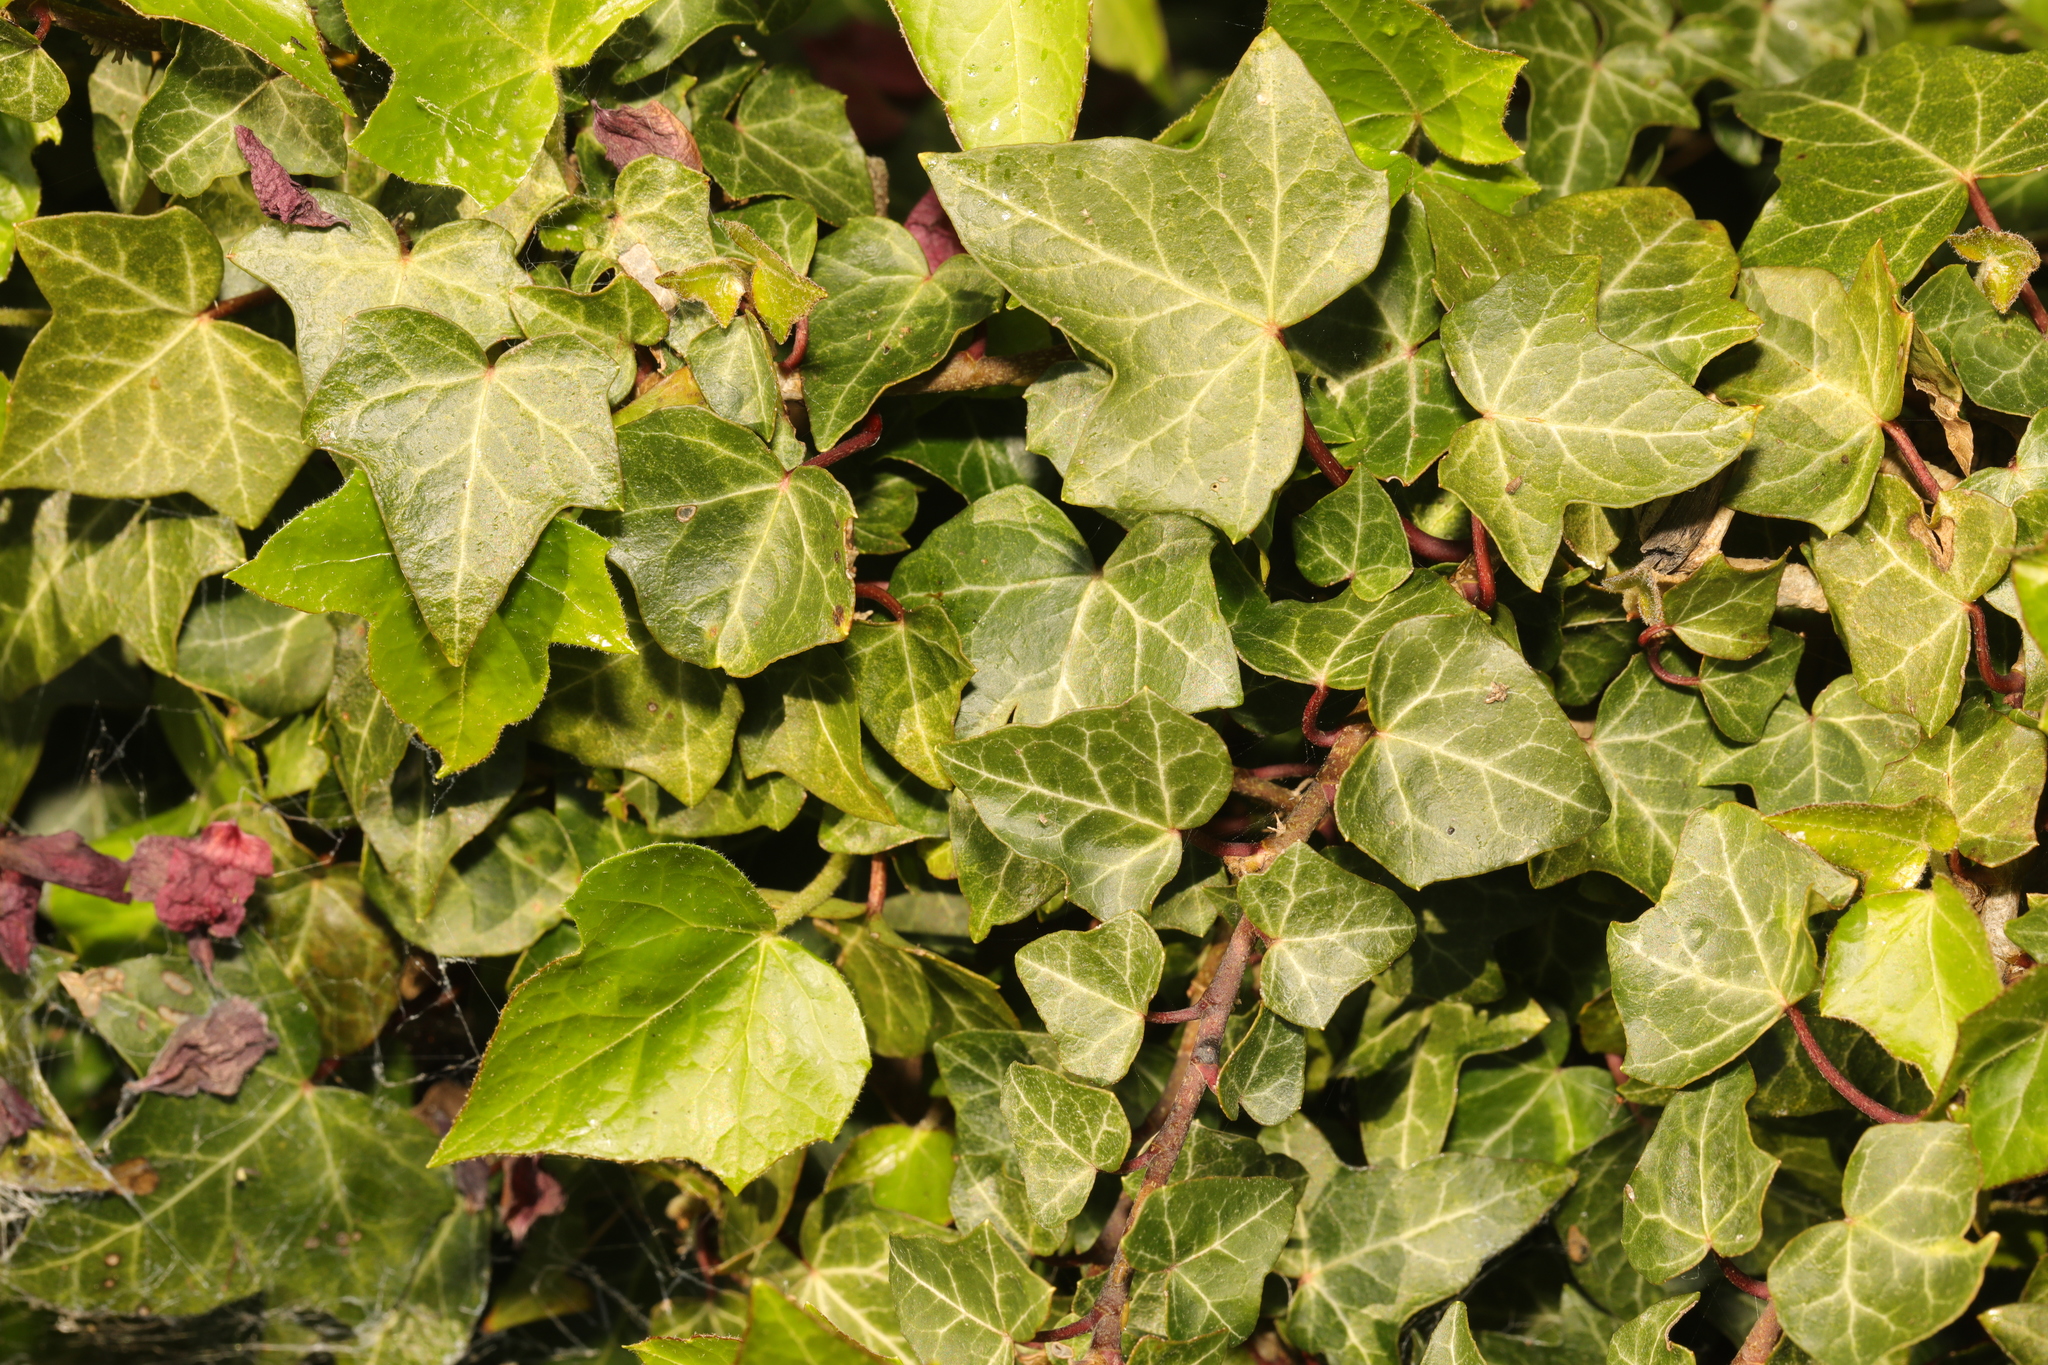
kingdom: Plantae
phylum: Tracheophyta
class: Magnoliopsida
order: Apiales
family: Araliaceae
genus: Hedera
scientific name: Hedera helix
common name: Ivy
